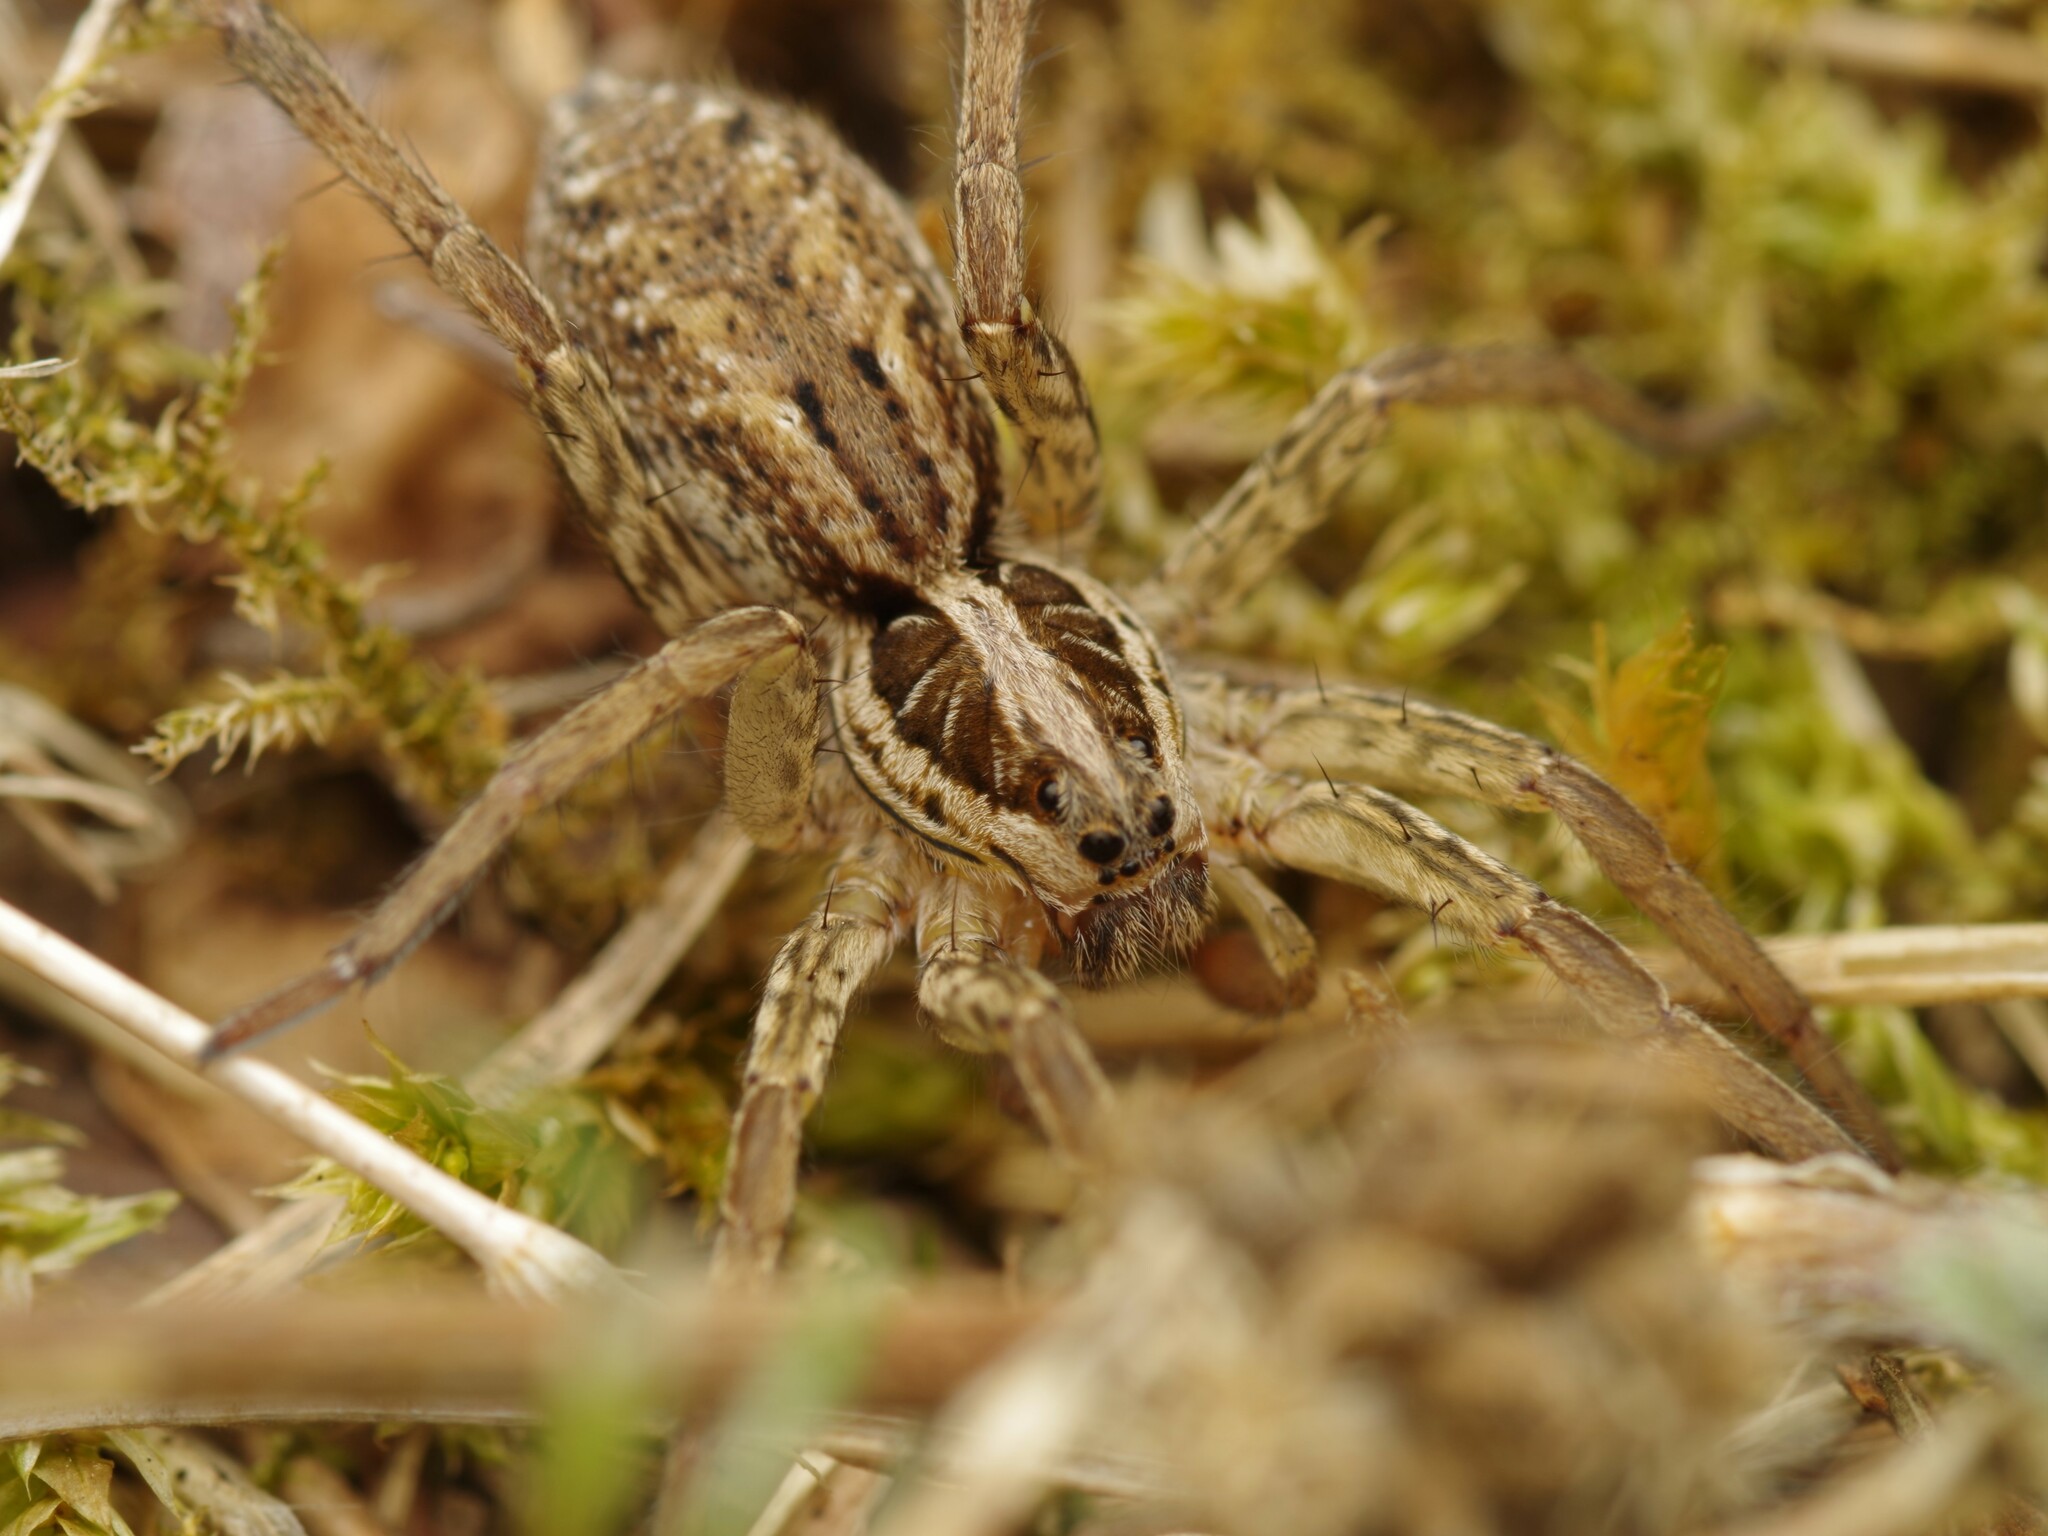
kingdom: Animalia
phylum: Arthropoda
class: Arachnida
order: Araneae
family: Lycosidae
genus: Hogna
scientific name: Hogna radiata
